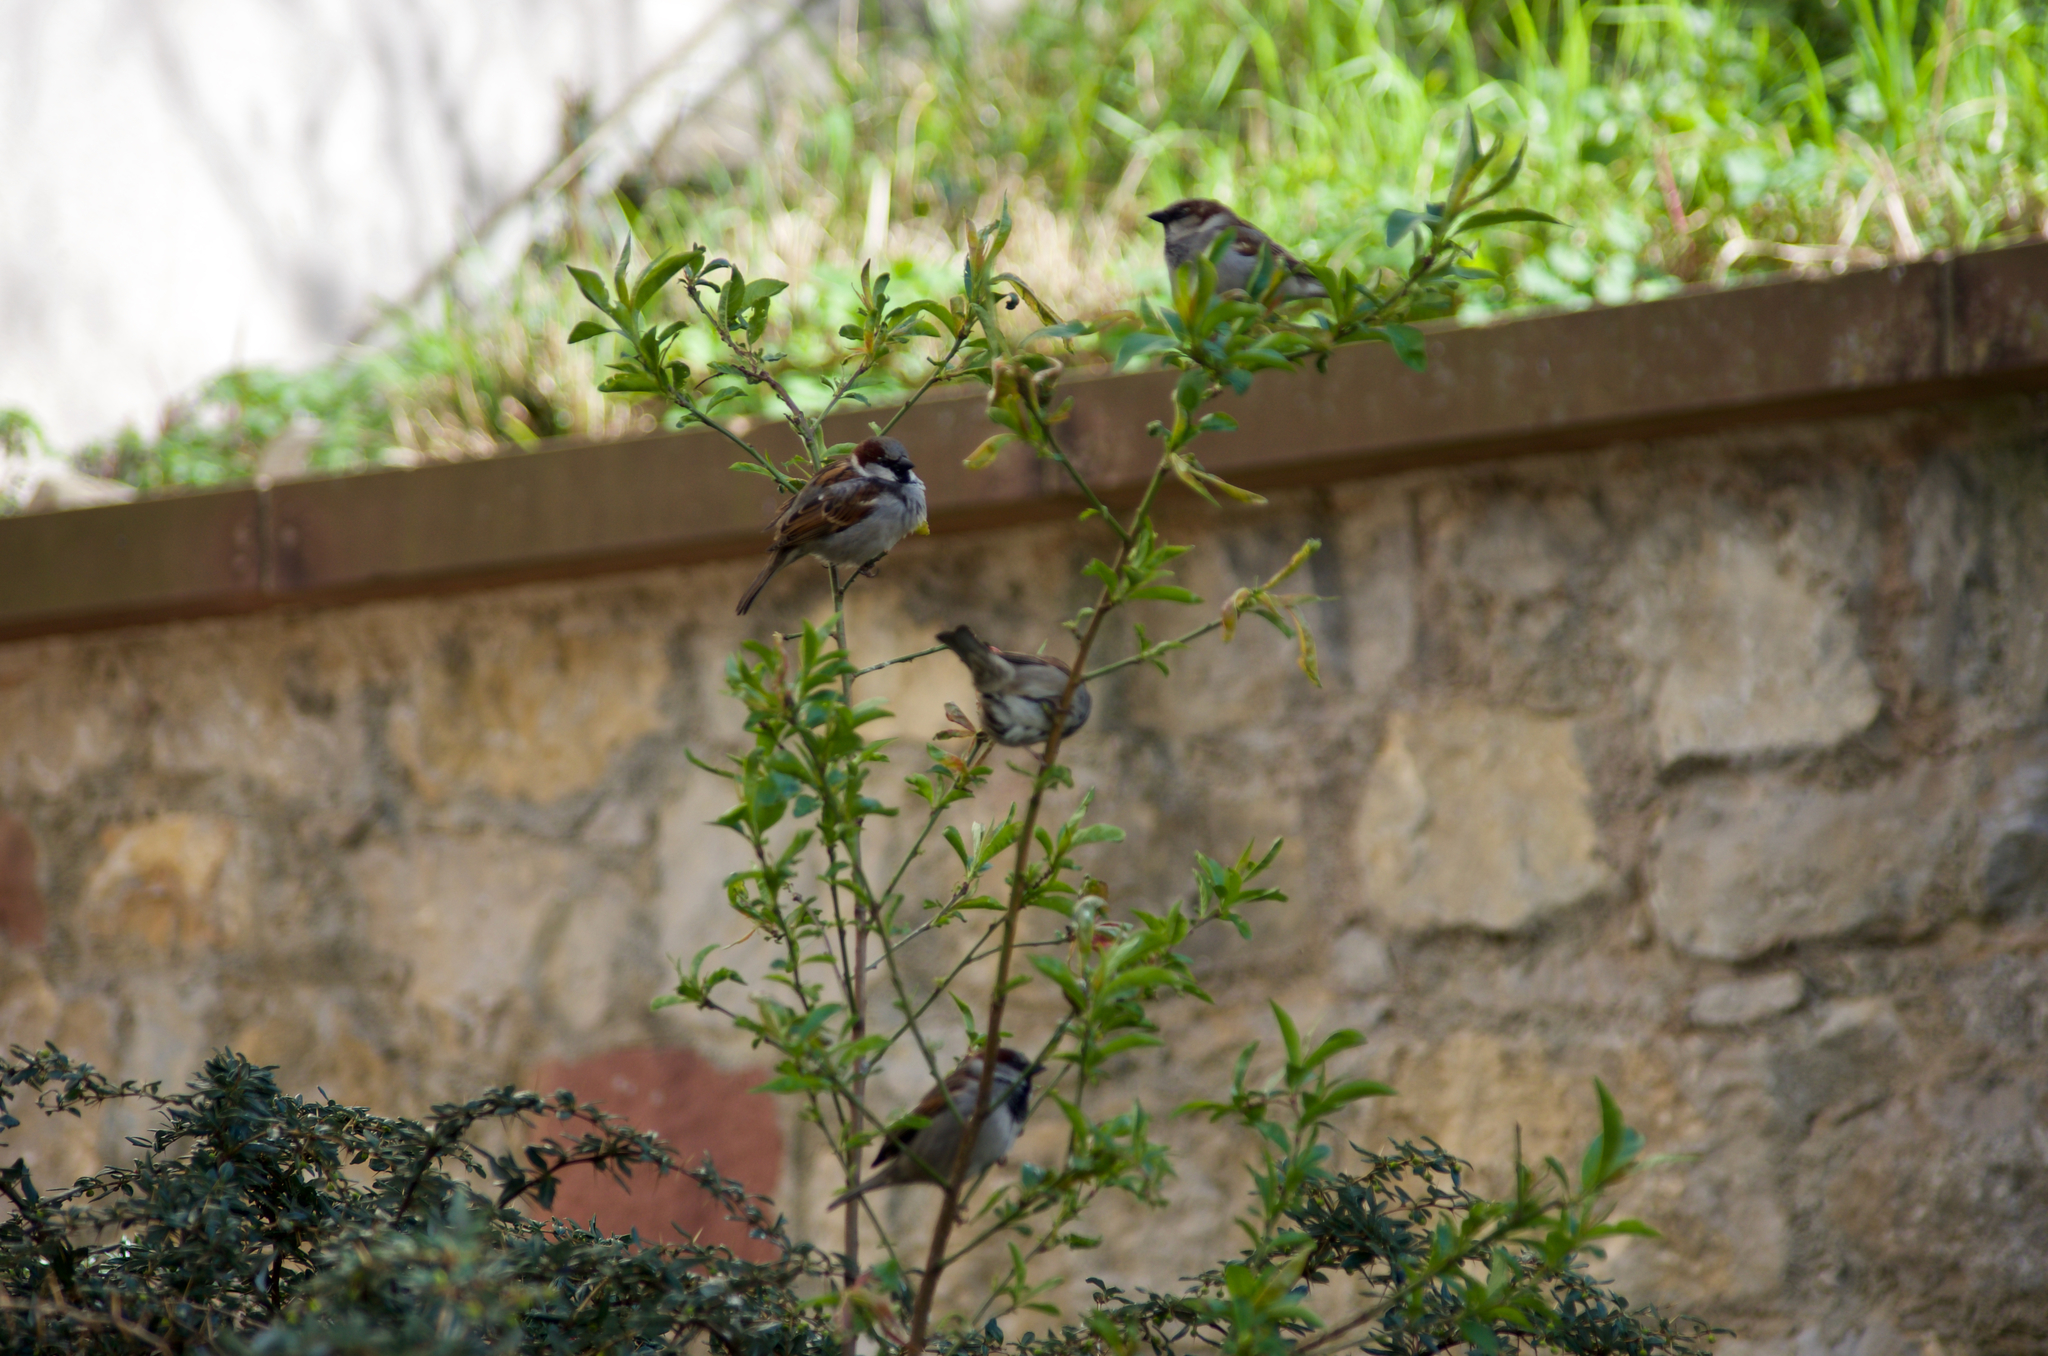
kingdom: Animalia
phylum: Chordata
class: Aves
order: Passeriformes
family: Passeridae
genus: Passer
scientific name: Passer domesticus
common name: House sparrow
